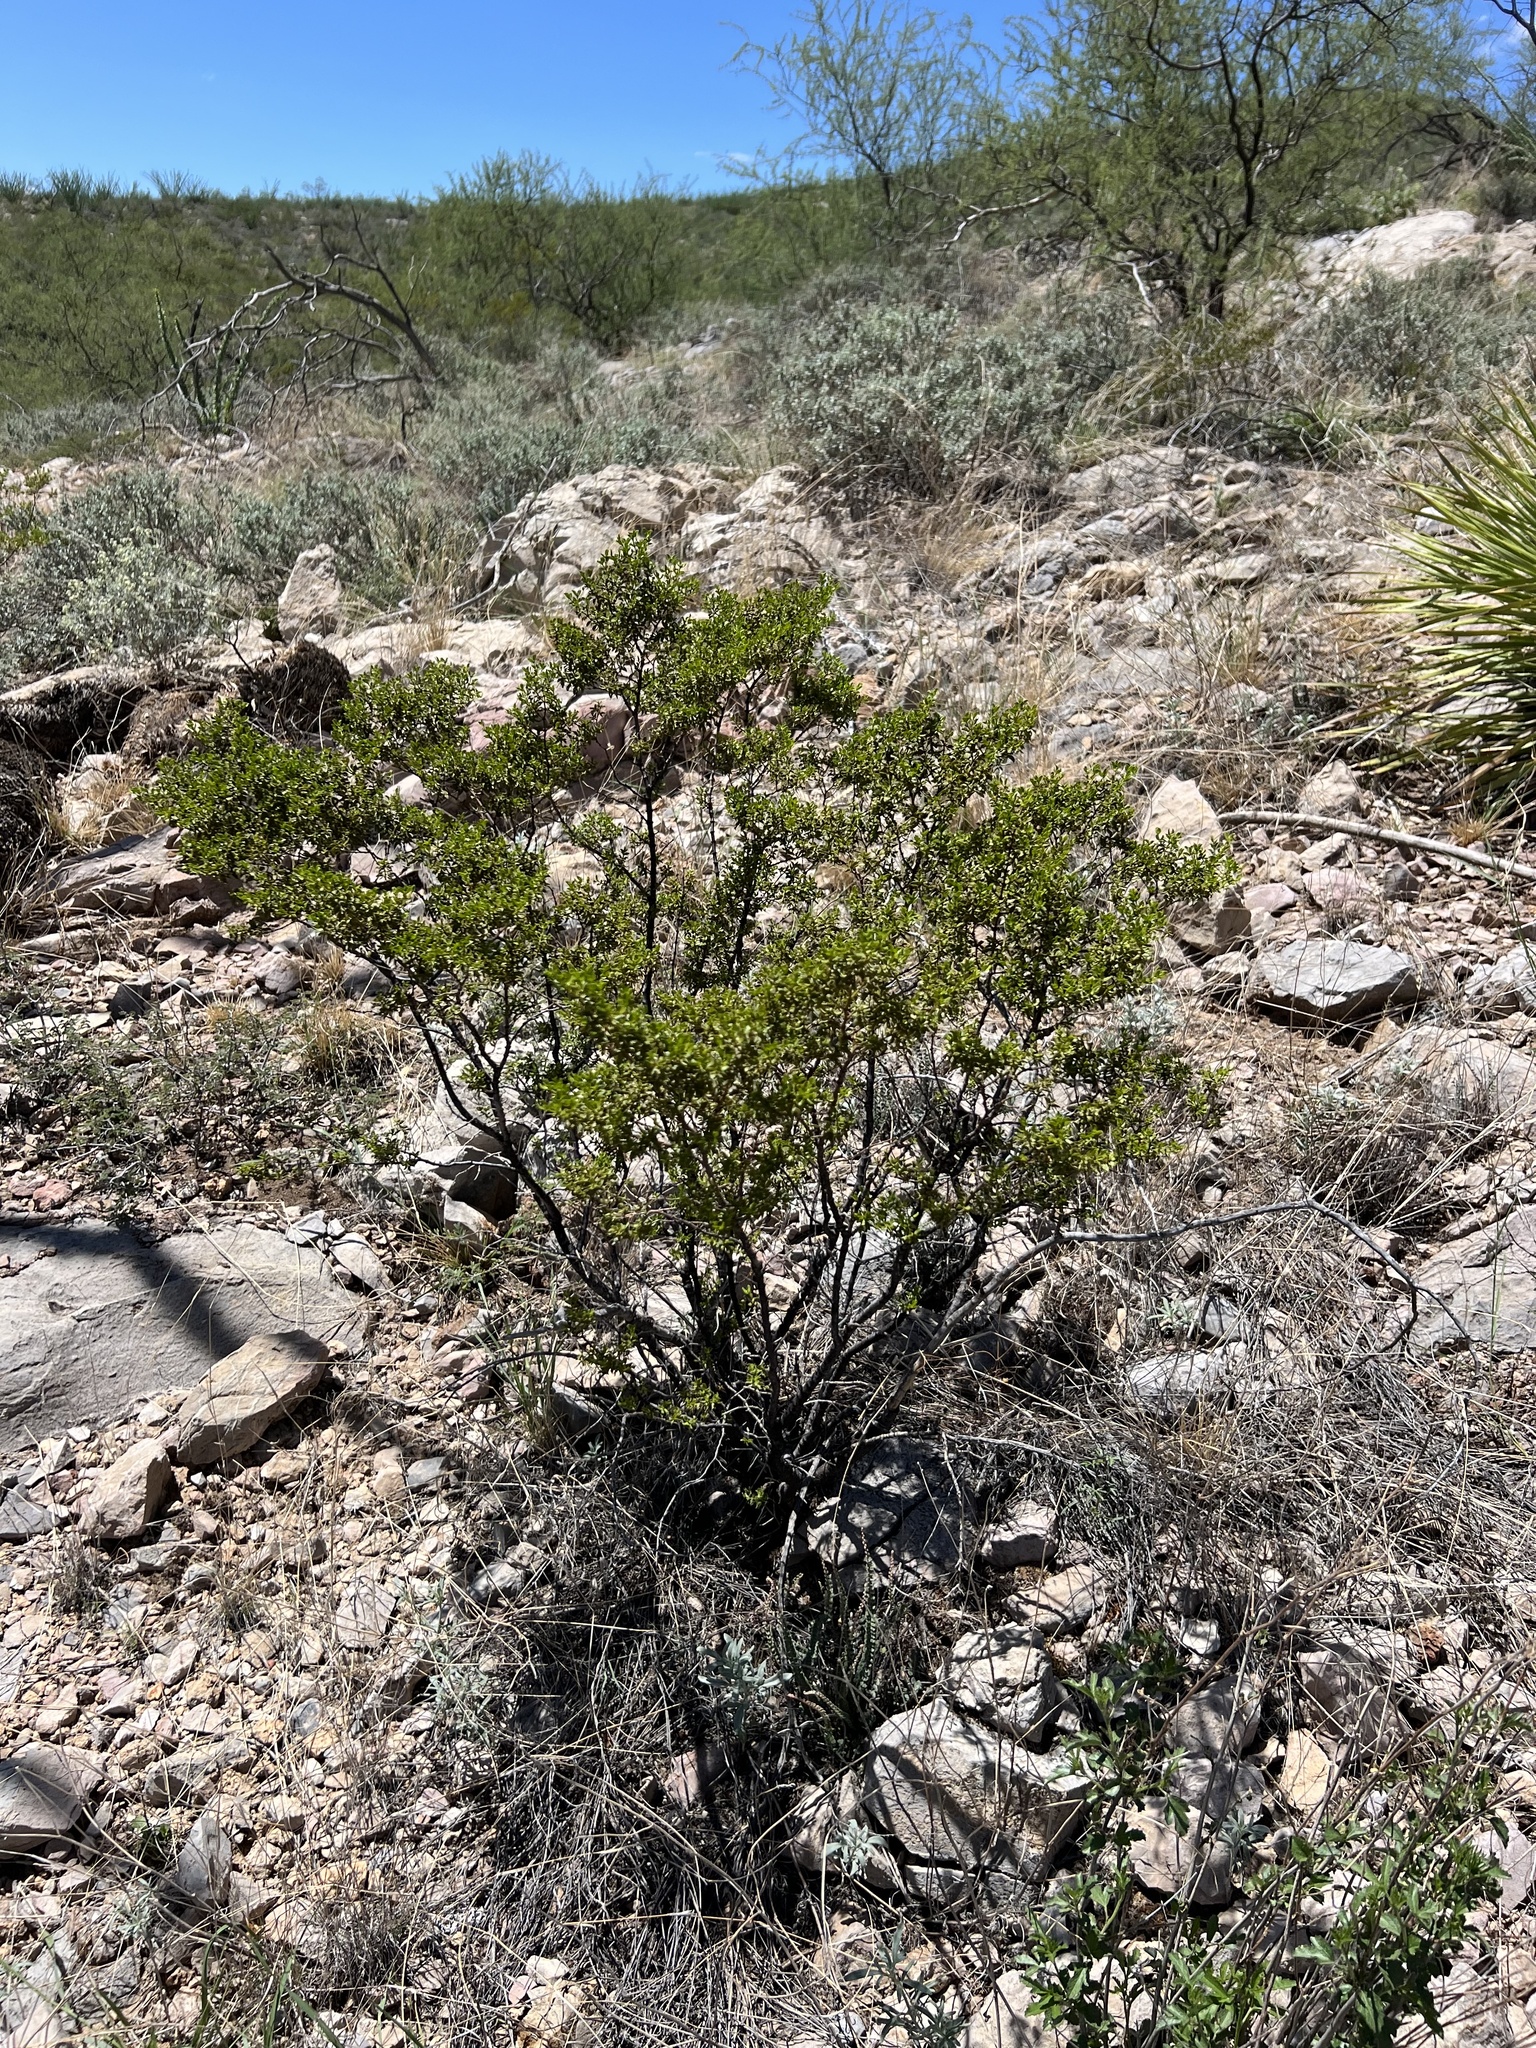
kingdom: Plantae
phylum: Tracheophyta
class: Magnoliopsida
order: Zygophyllales
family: Zygophyllaceae
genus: Larrea
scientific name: Larrea tridentata
